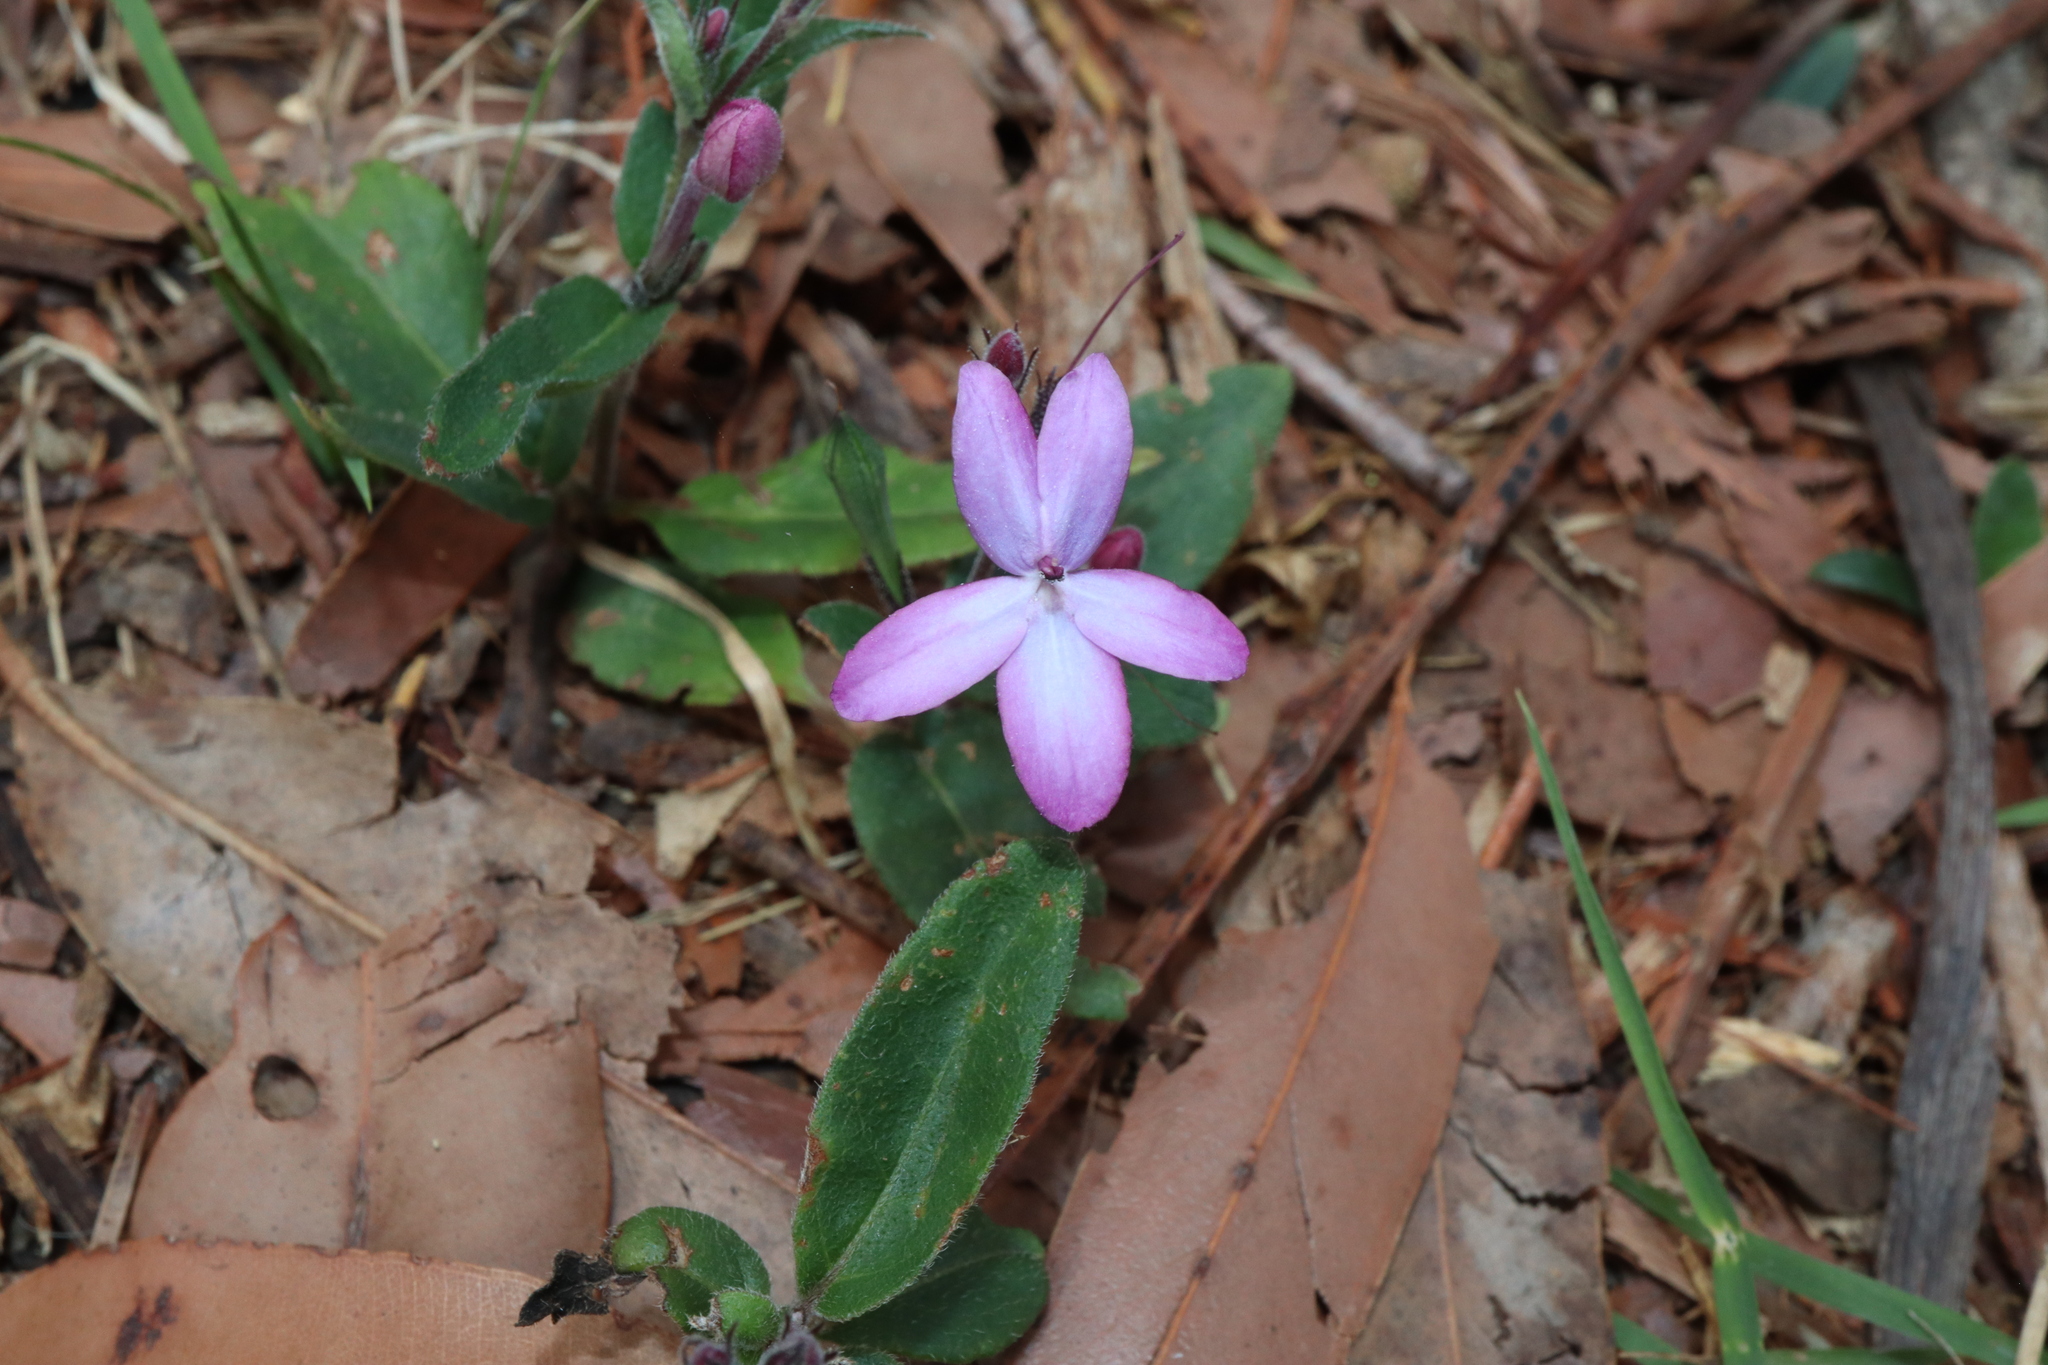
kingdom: Plantae
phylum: Tracheophyta
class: Magnoliopsida
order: Lamiales
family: Acanthaceae
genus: Pseuderanthemum
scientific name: Pseuderanthemum variabile
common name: Night and afternoon
